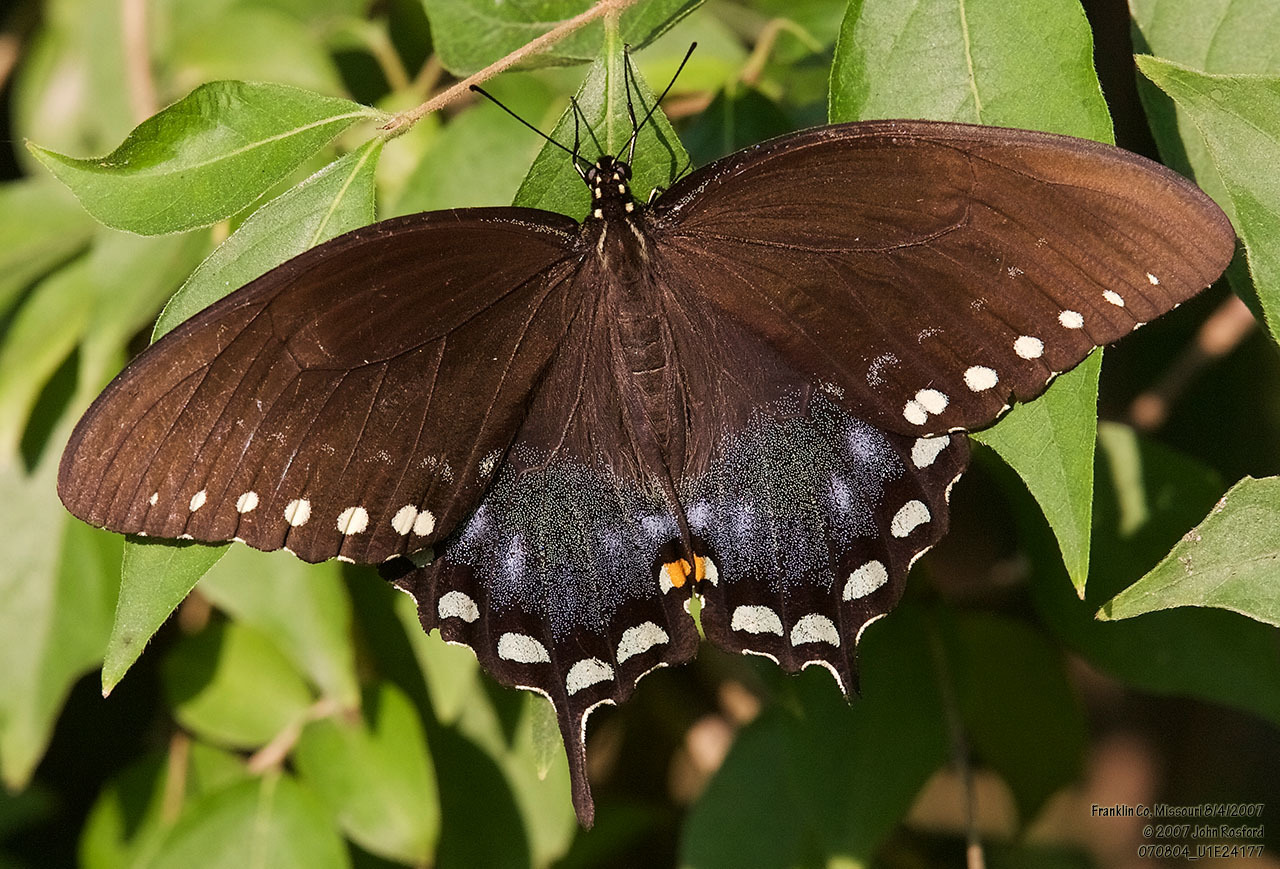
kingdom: Animalia
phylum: Arthropoda
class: Insecta
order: Lepidoptera
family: Papilionidae
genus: Papilio
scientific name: Papilio troilus
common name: Spicebush swallowtail
